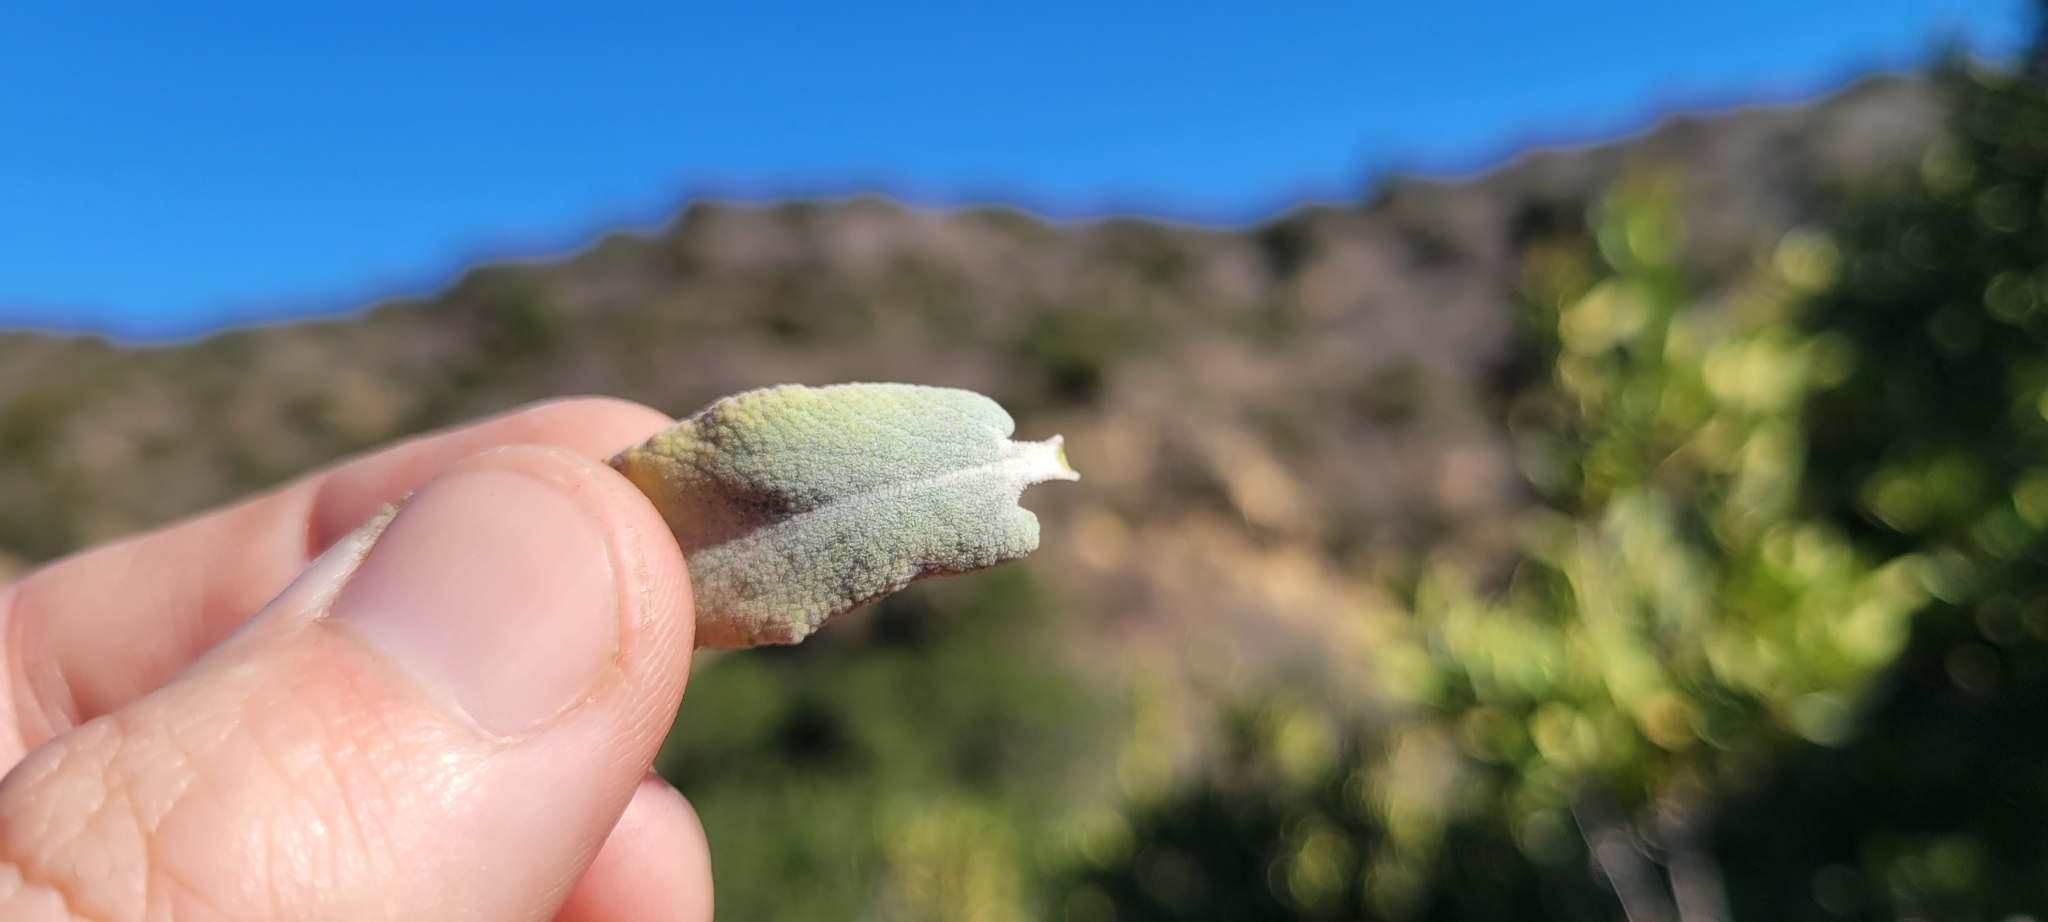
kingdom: Plantae
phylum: Tracheophyta
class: Magnoliopsida
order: Lamiales
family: Lamiaceae
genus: Salvia
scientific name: Salvia leucophylla
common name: Purple sage
